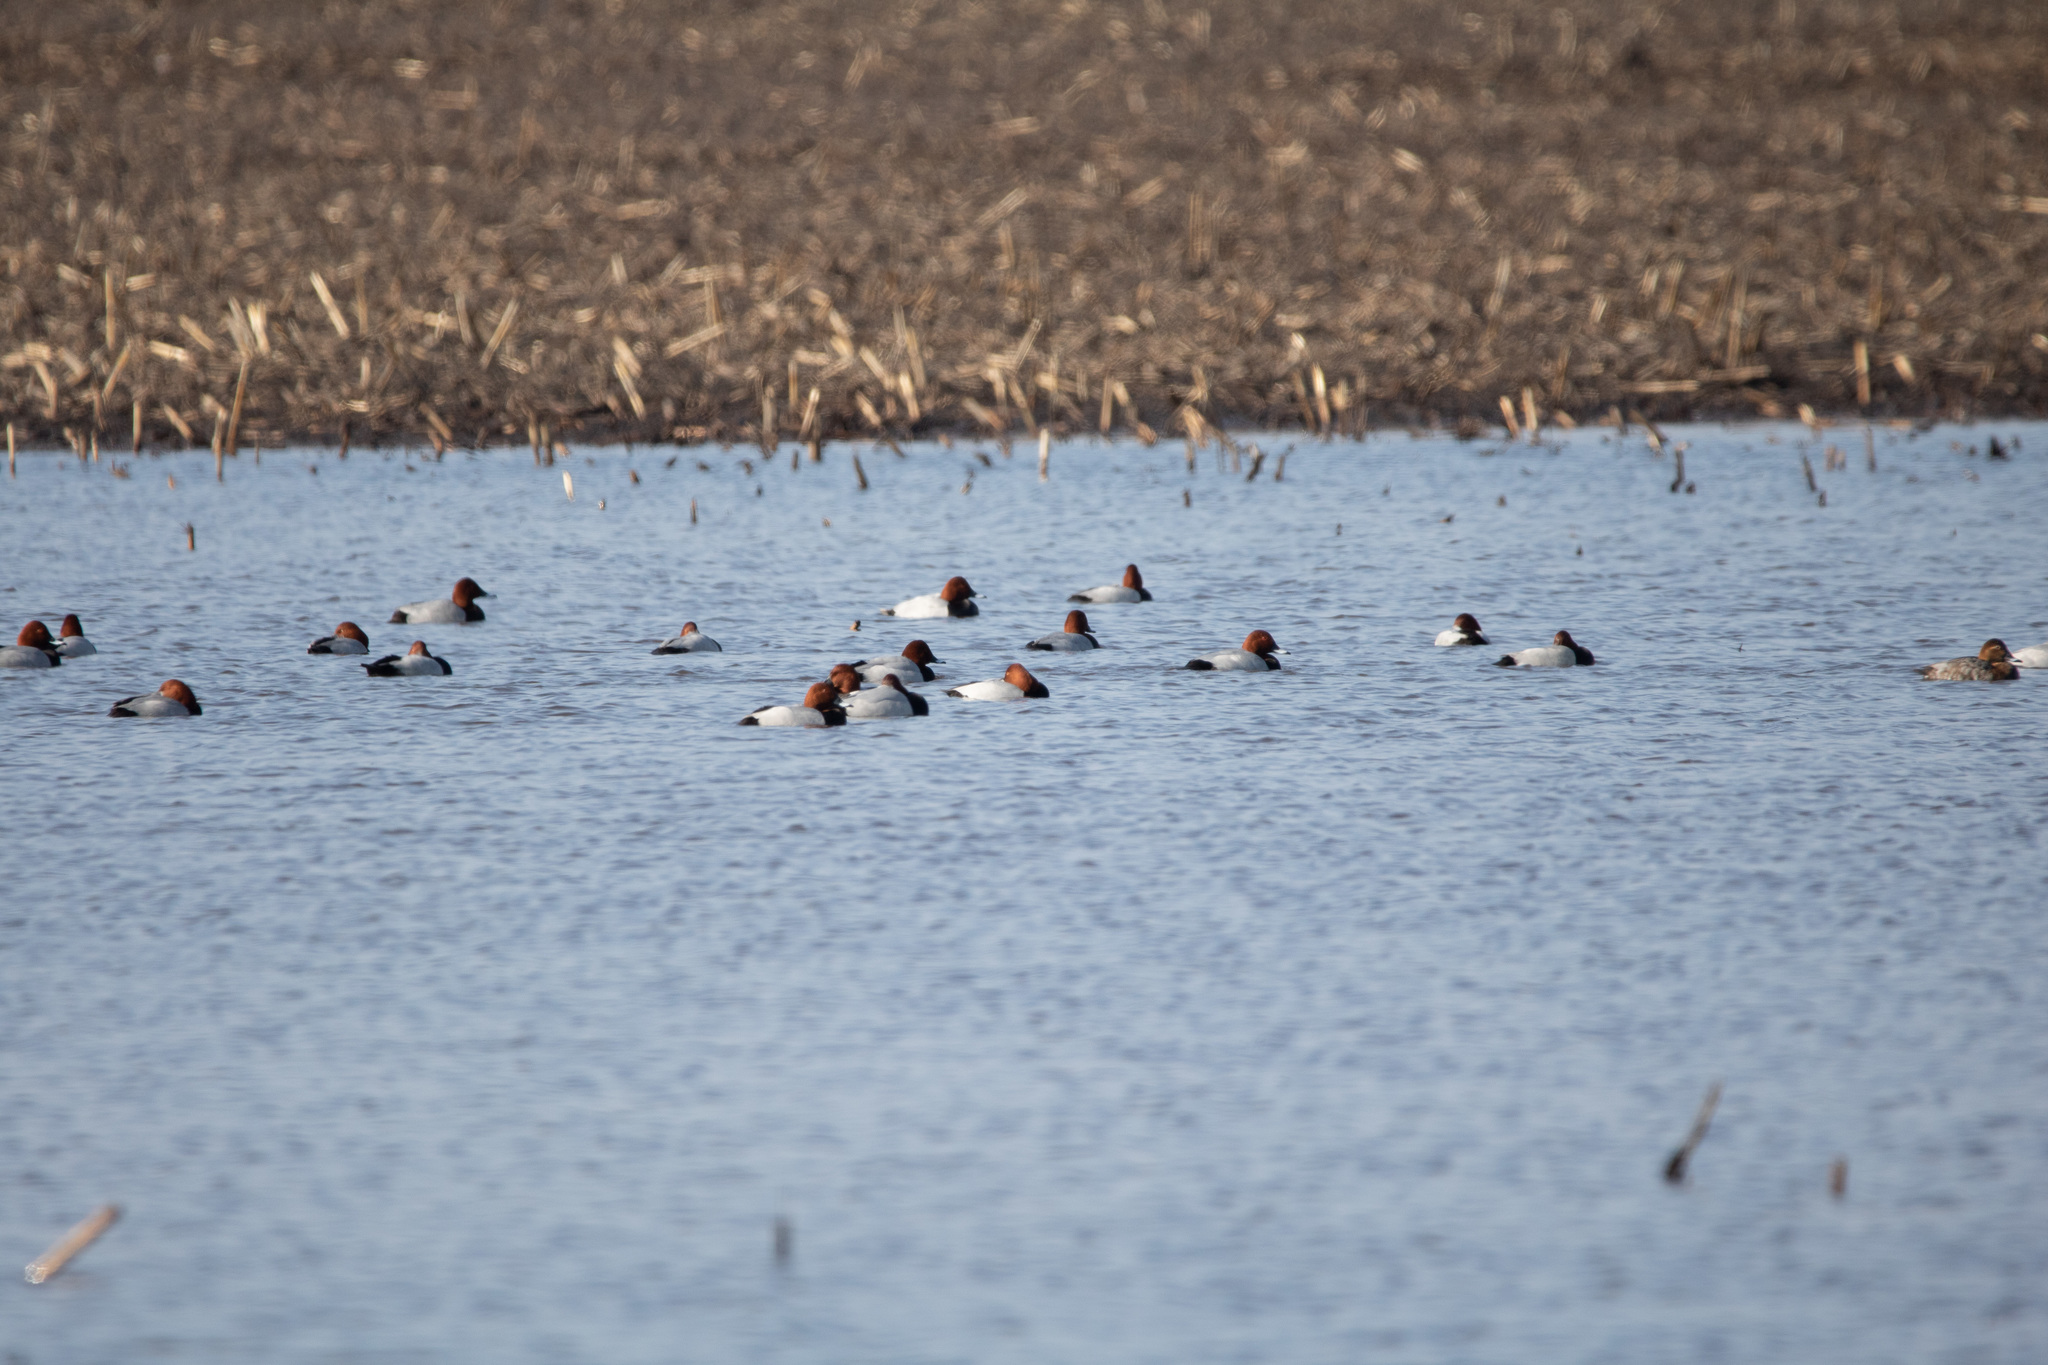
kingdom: Animalia
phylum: Chordata
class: Aves
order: Anseriformes
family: Anatidae
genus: Aythya
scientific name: Aythya ferina
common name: Common pochard
